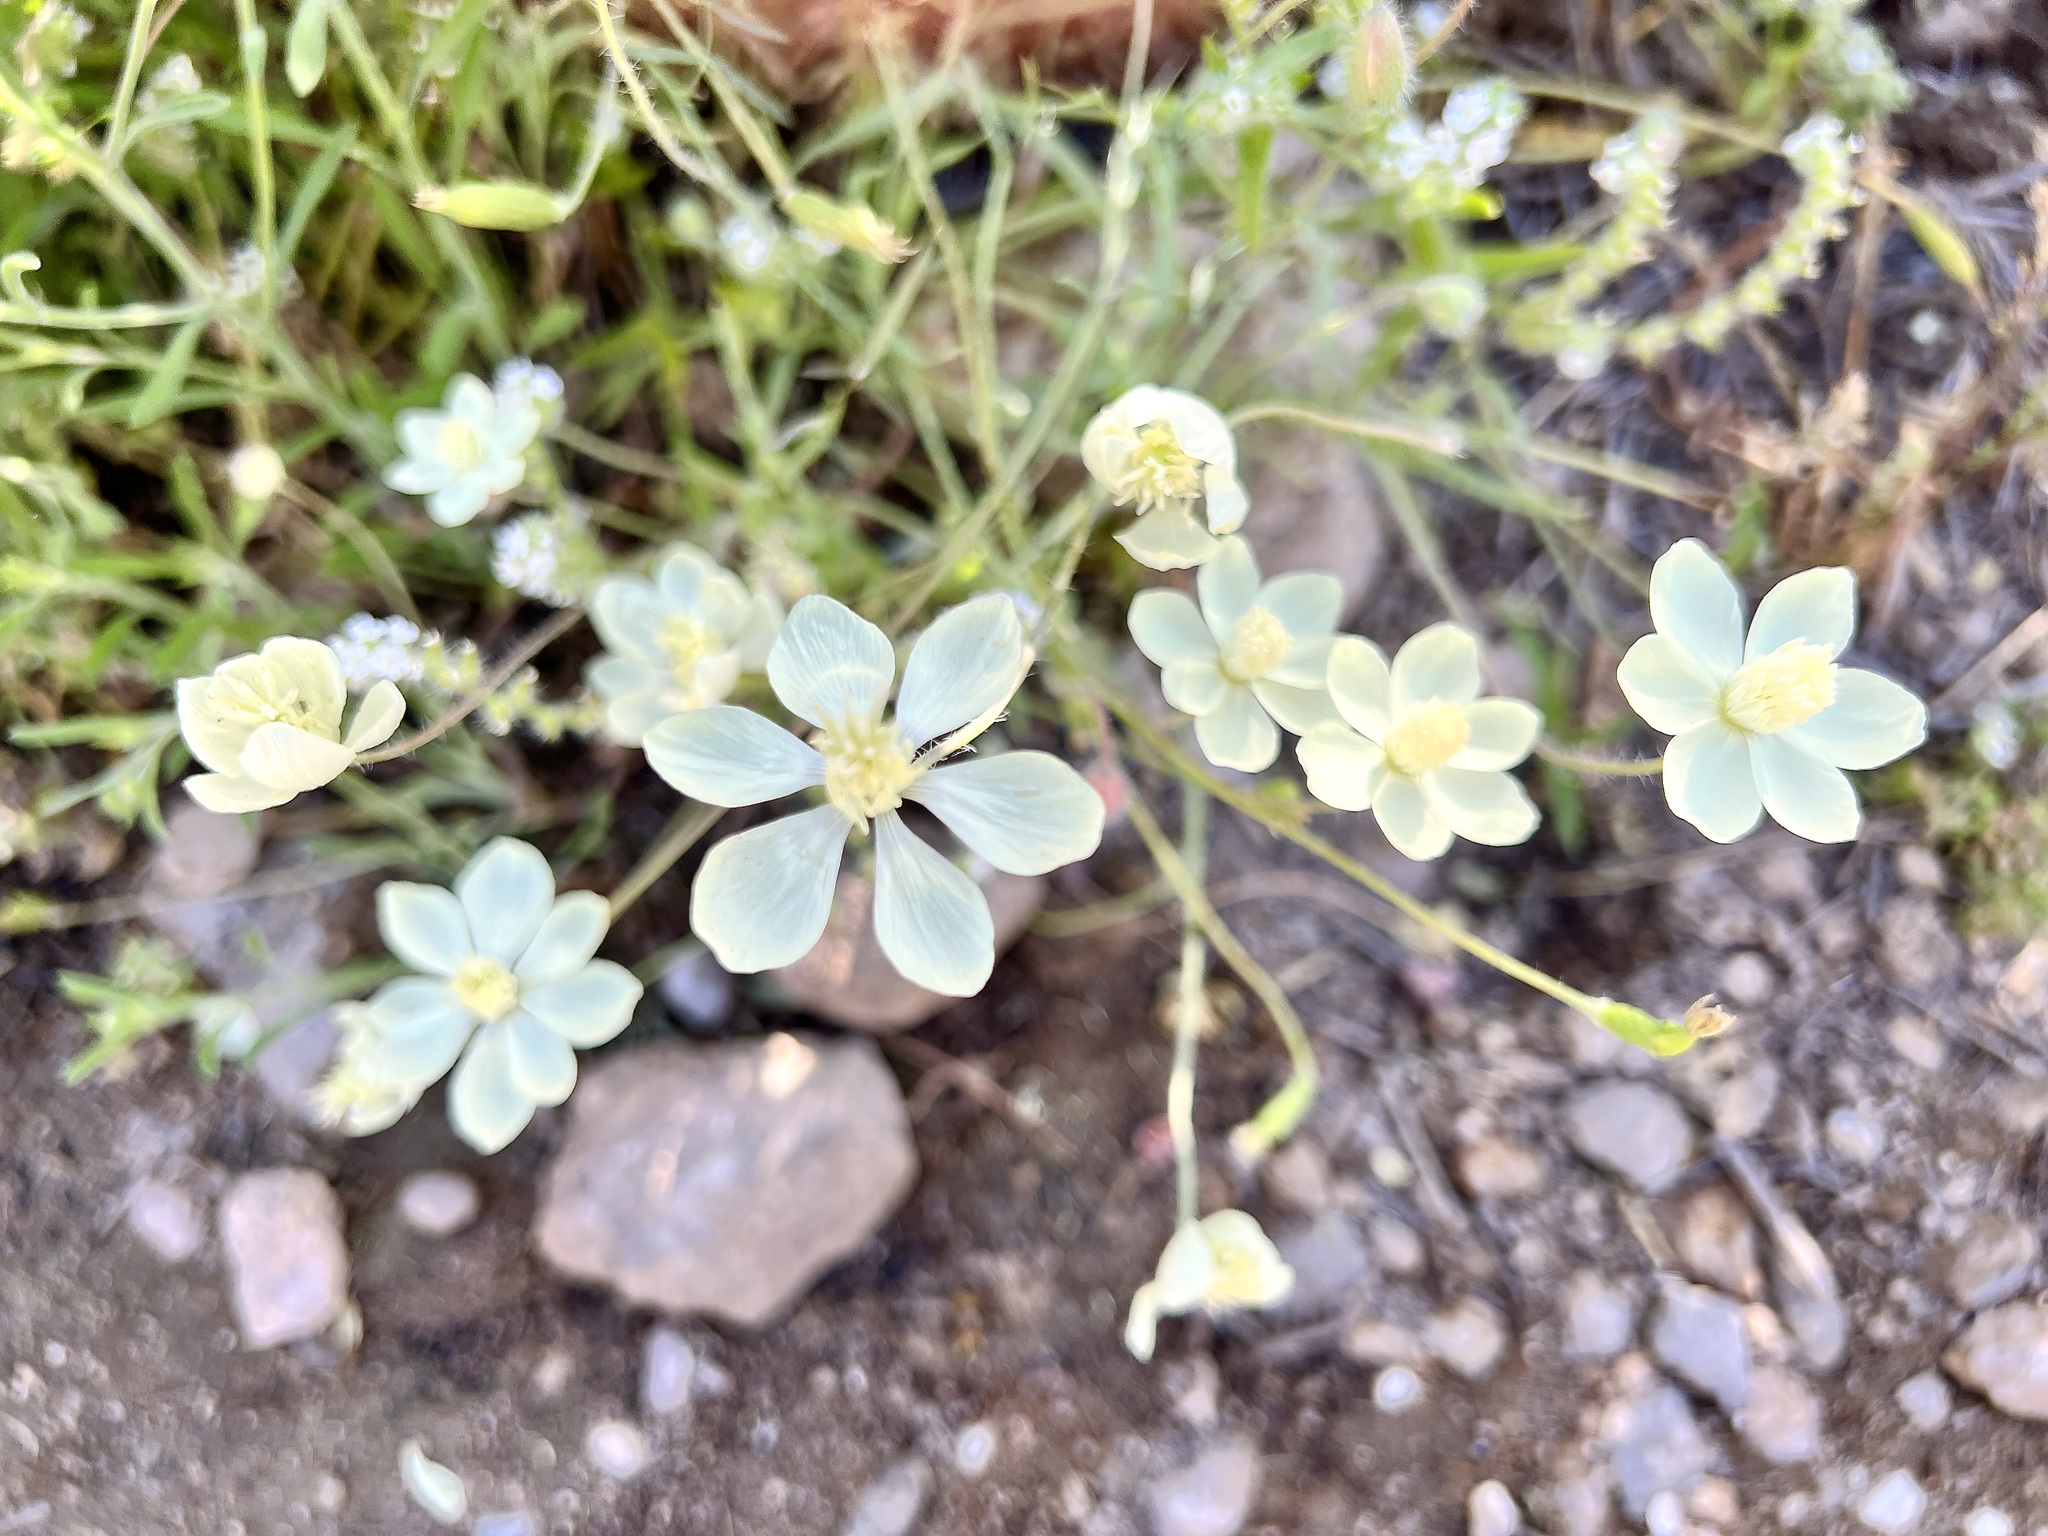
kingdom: Plantae
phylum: Tracheophyta
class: Magnoliopsida
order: Ranunculales
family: Papaveraceae
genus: Platystemon
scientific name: Platystemon californicus
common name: Cream-cups
